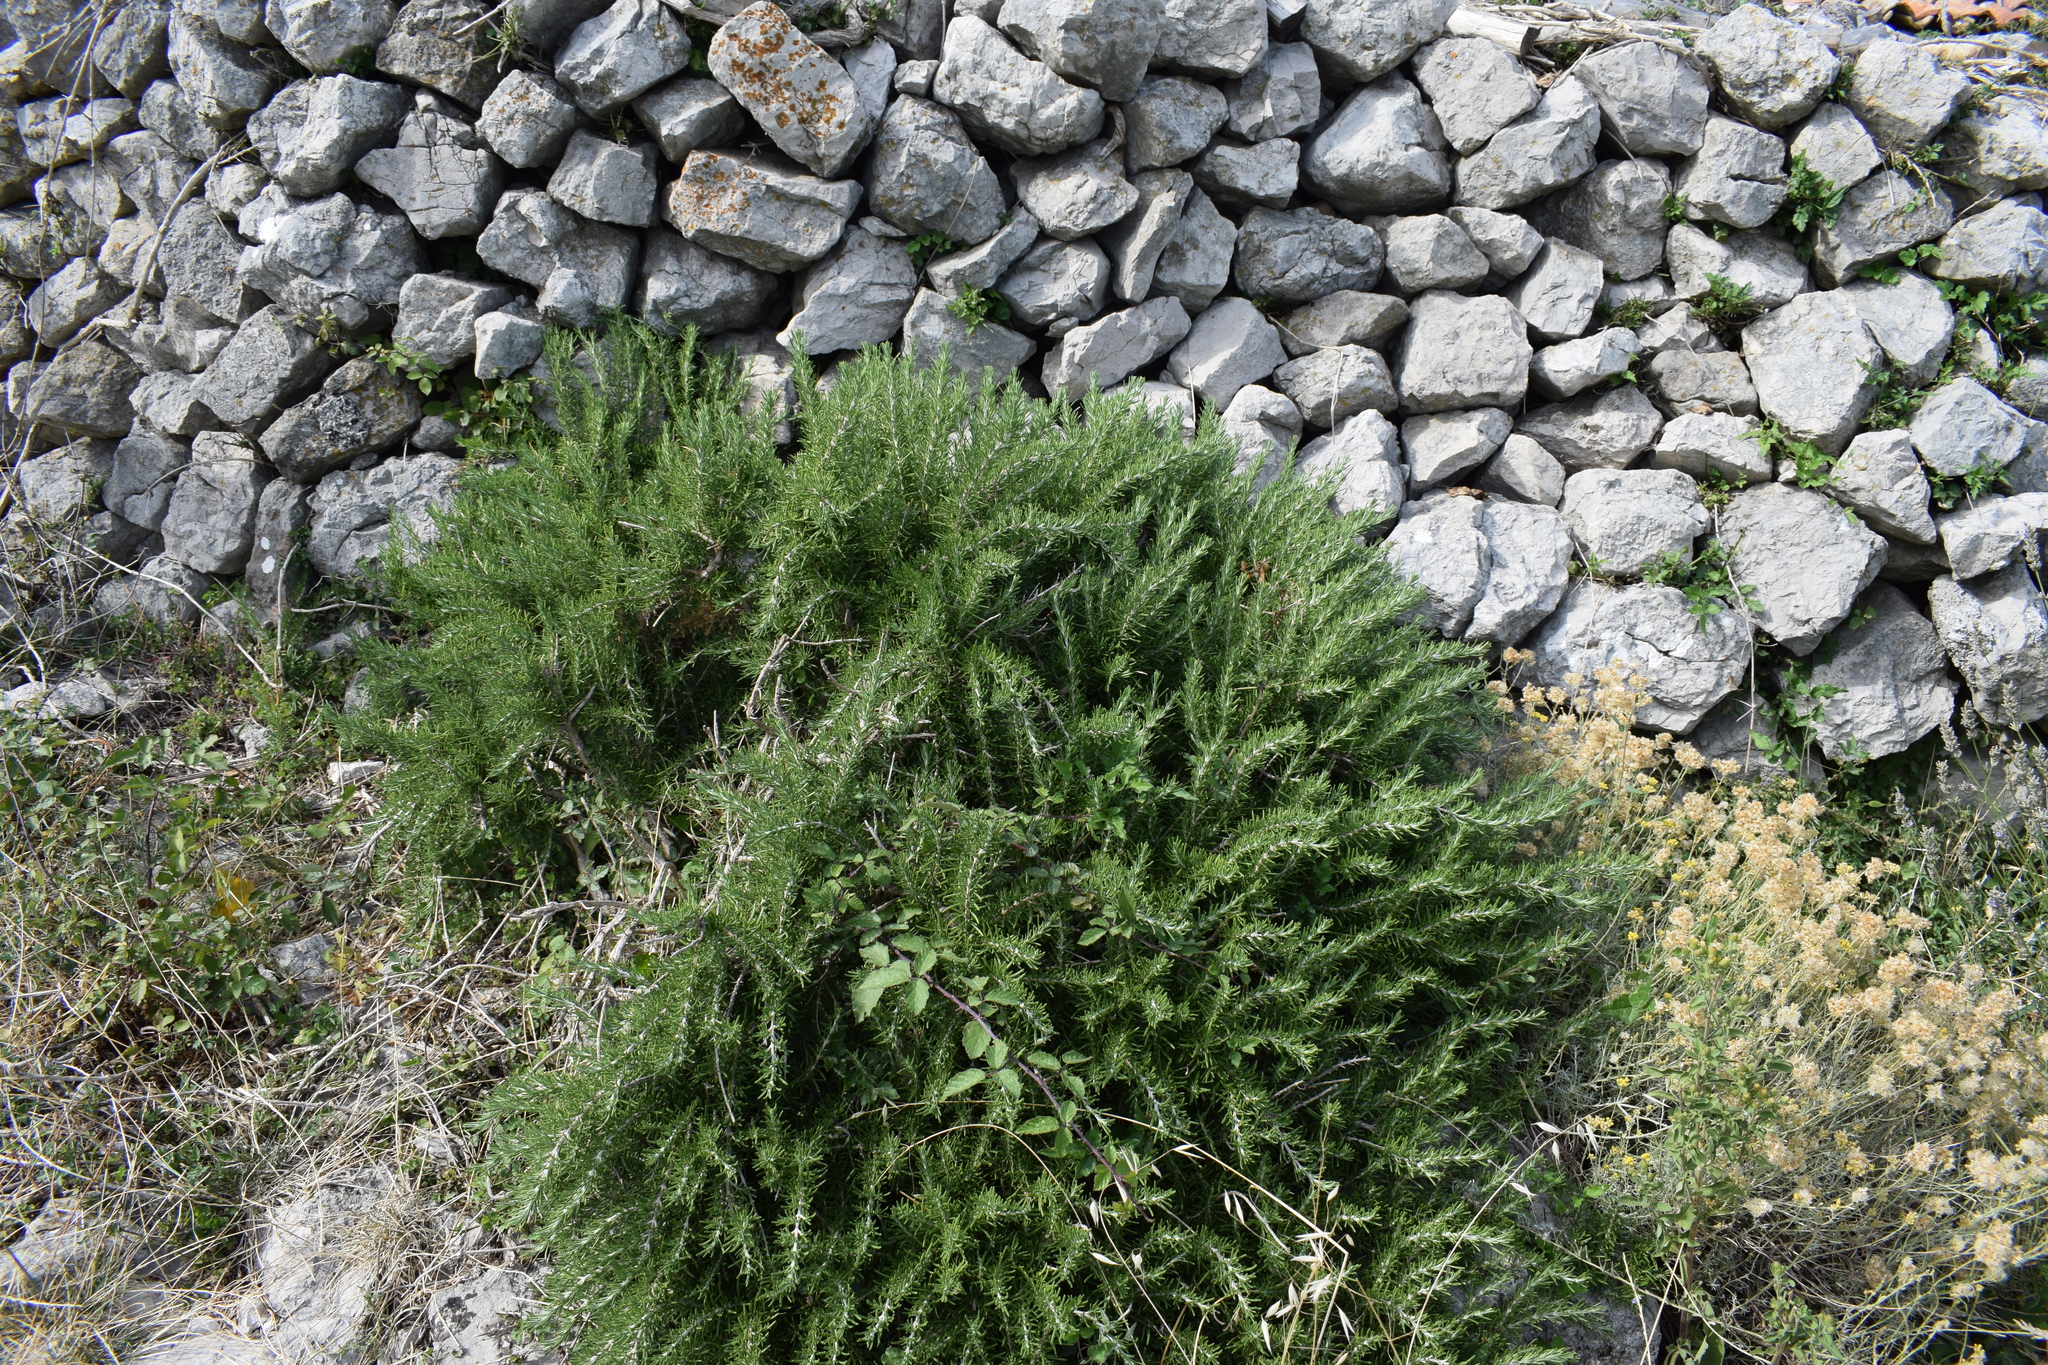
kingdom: Plantae
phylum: Tracheophyta
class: Magnoliopsida
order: Lamiales
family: Lamiaceae
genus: Salvia
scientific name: Salvia rosmarinus
